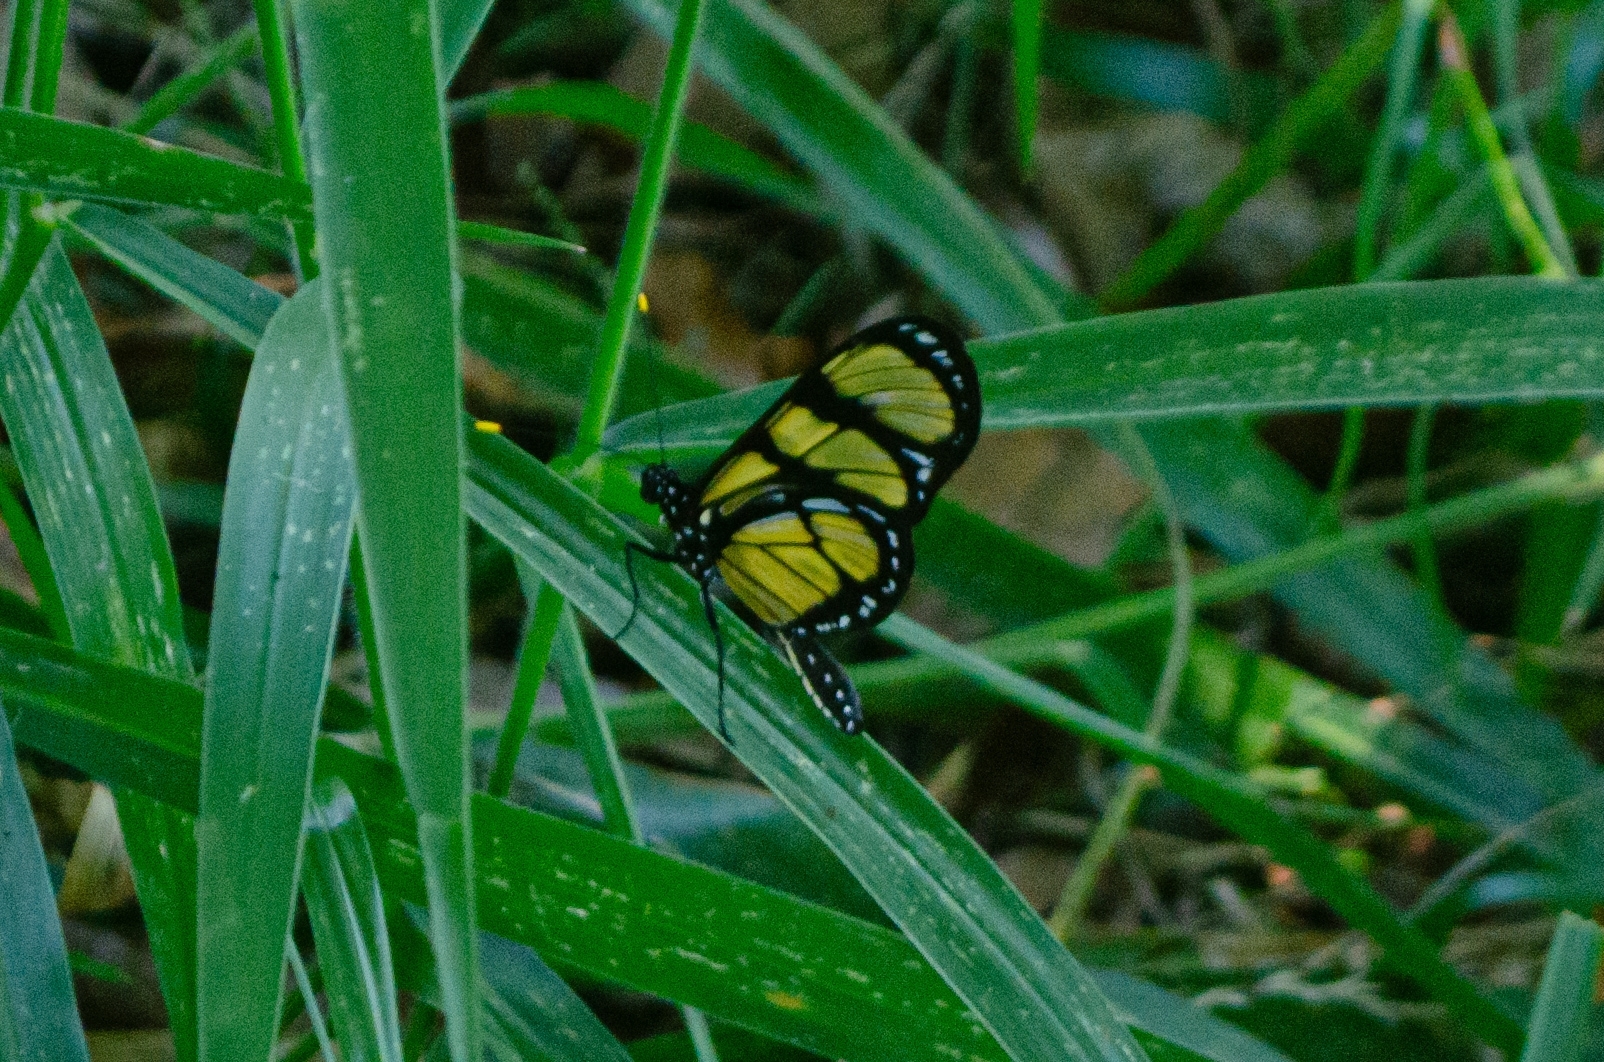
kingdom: Animalia
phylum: Arthropoda
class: Insecta
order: Lepidoptera
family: Nymphalidae
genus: Methona
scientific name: Methona themisto
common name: Themisto amberwing
